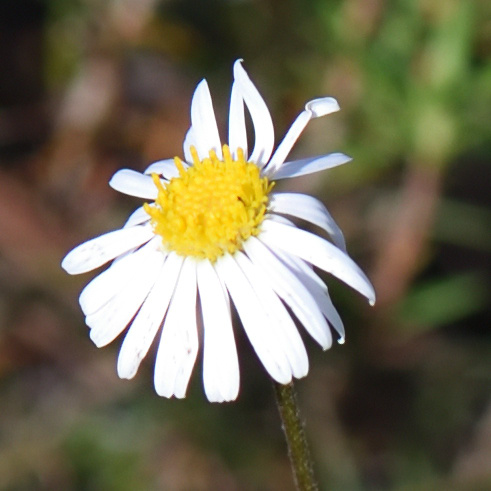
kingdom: Plantae
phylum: Tracheophyta
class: Magnoliopsida
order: Asterales
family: Asteraceae
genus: Felicia
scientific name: Felicia muricata
